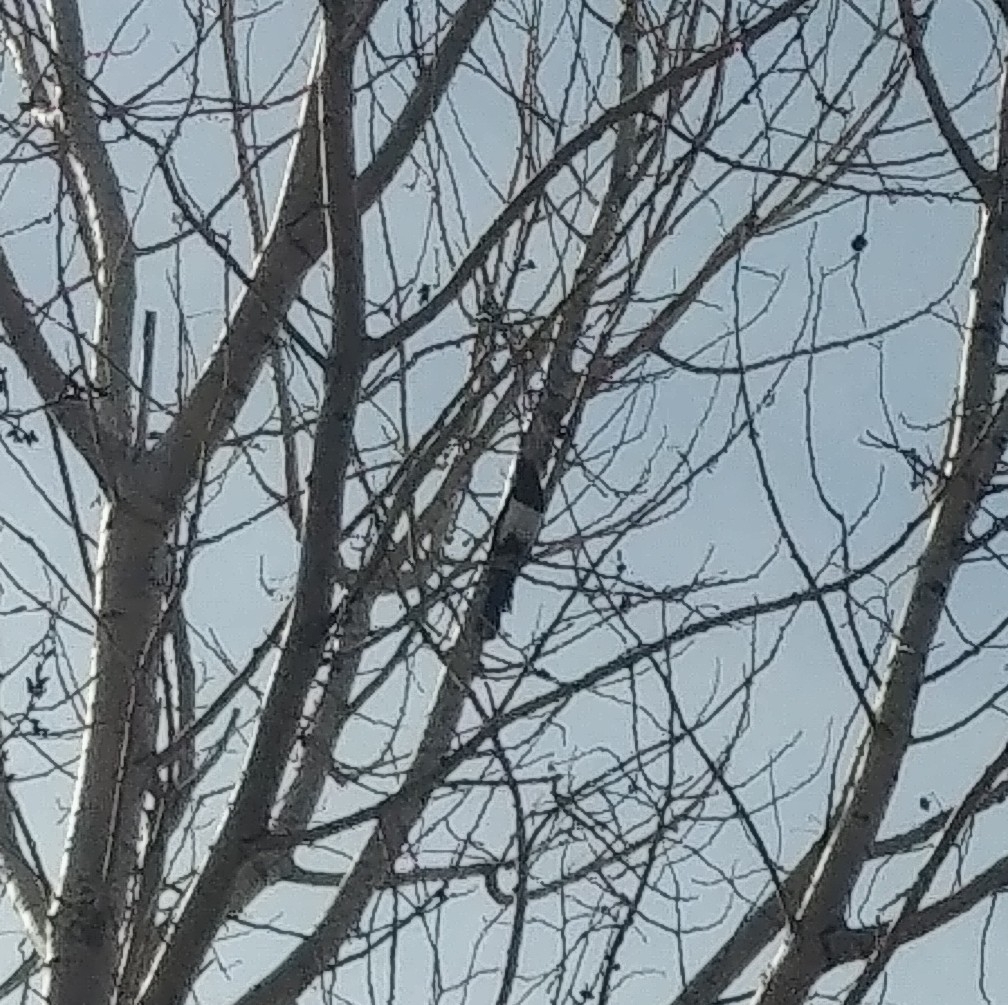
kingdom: Animalia
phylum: Chordata
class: Aves
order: Passeriformes
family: Corvidae
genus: Pica
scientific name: Pica hudsonia
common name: Black-billed magpie
